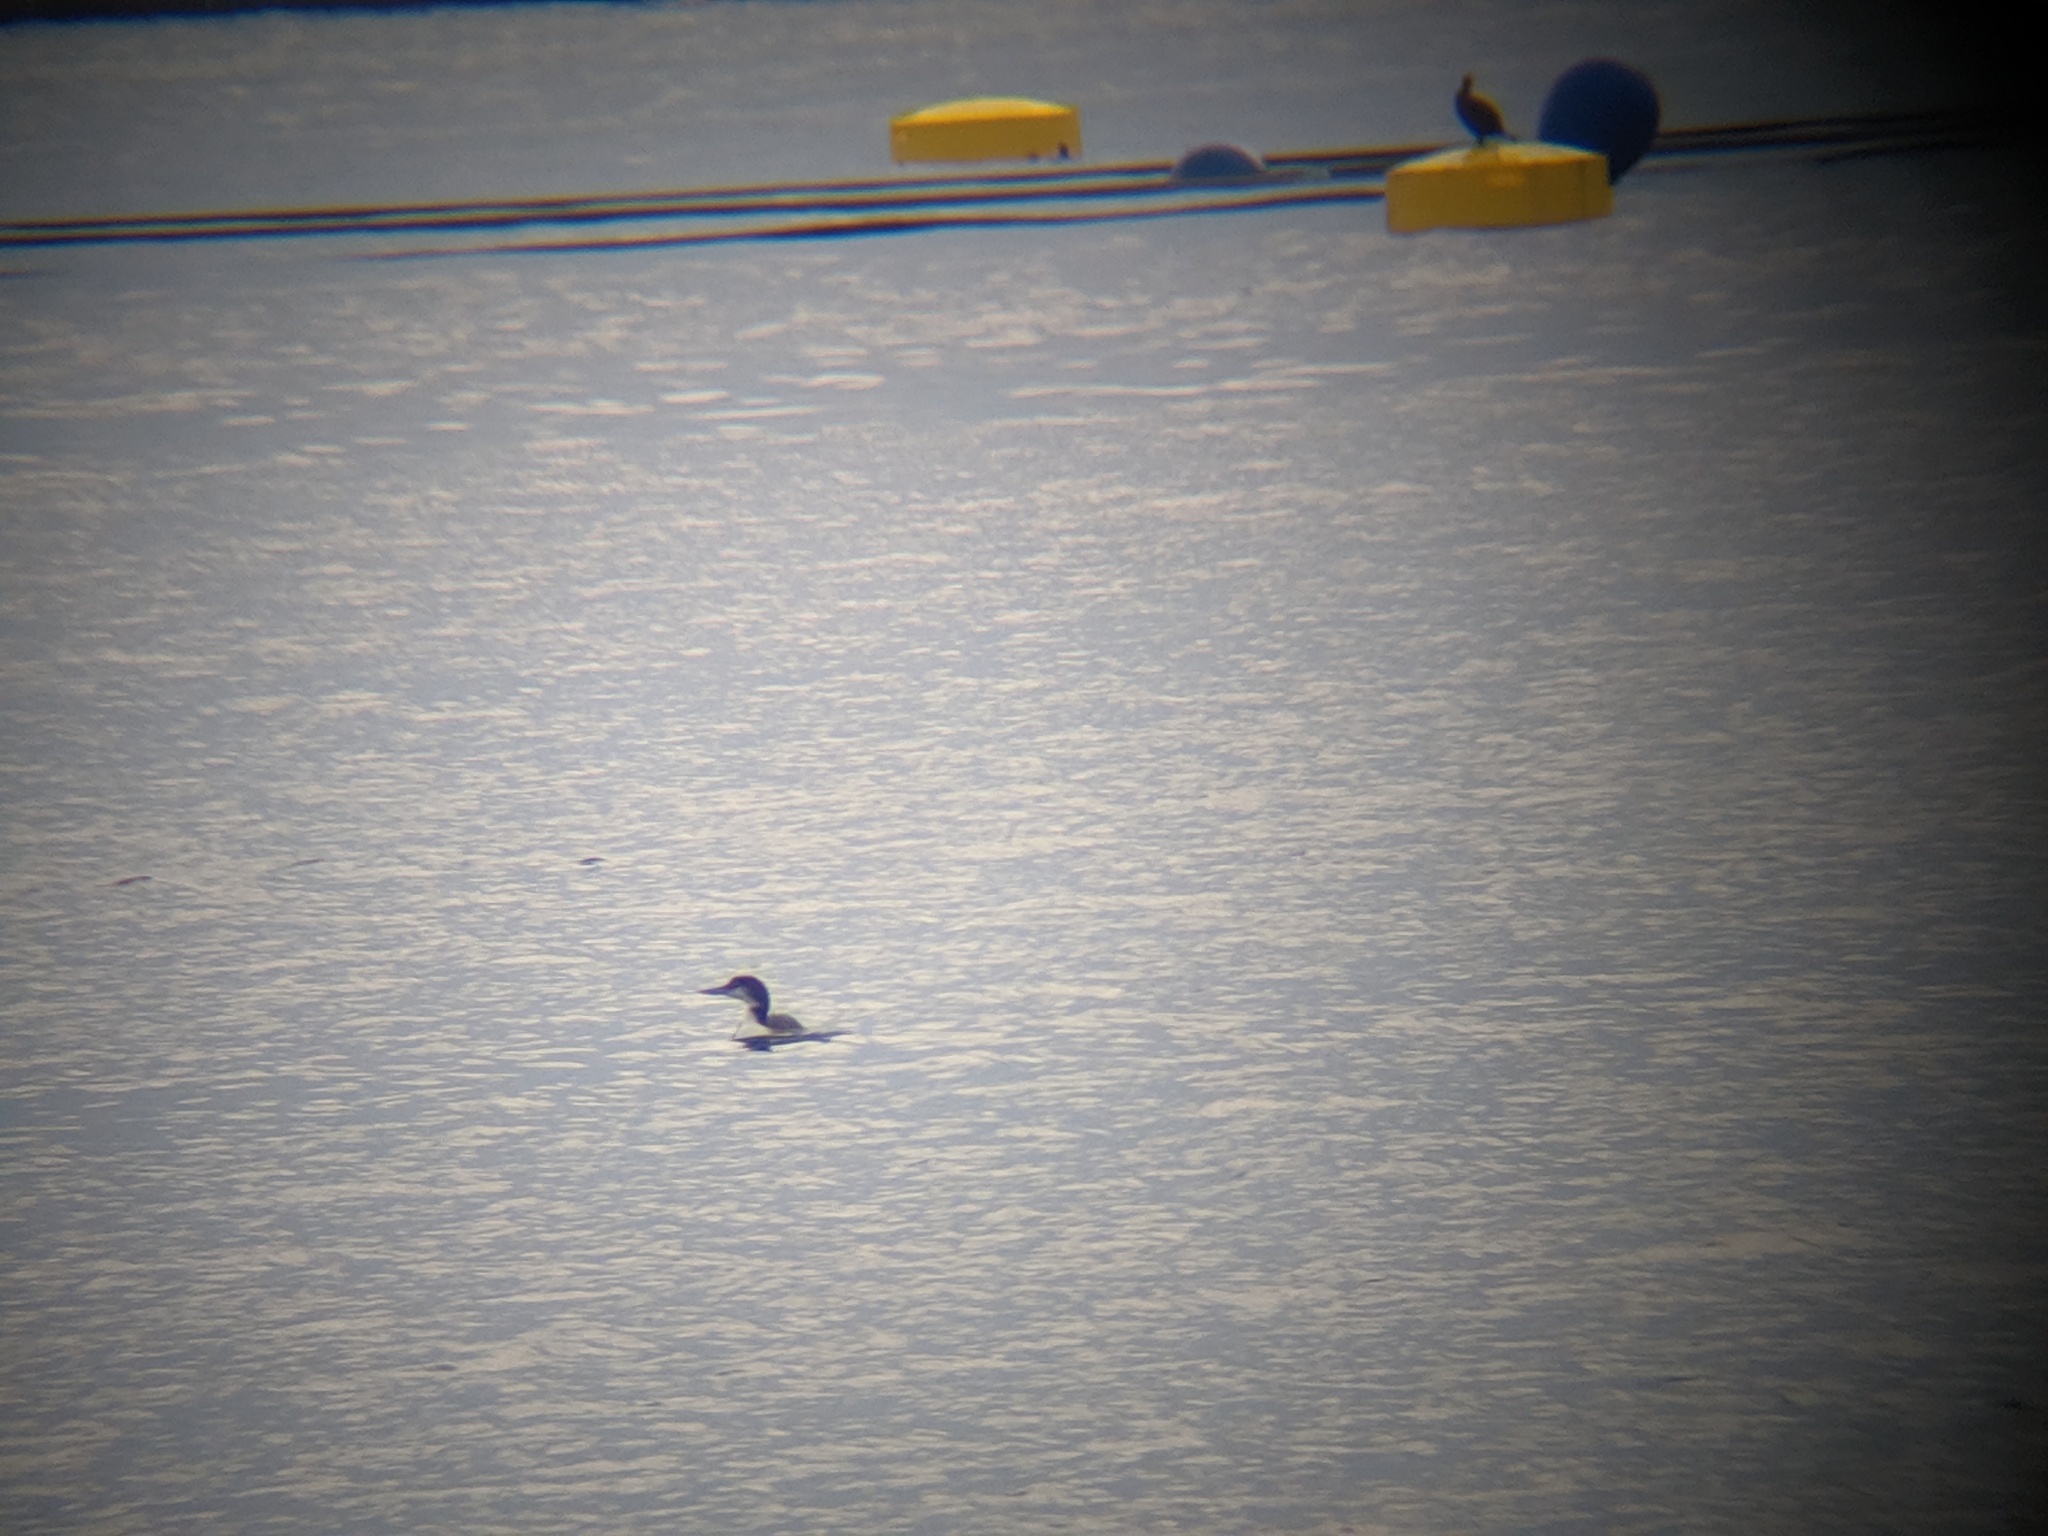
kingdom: Animalia
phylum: Chordata
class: Aves
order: Gaviiformes
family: Gaviidae
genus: Gavia
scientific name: Gavia immer
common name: Common loon
